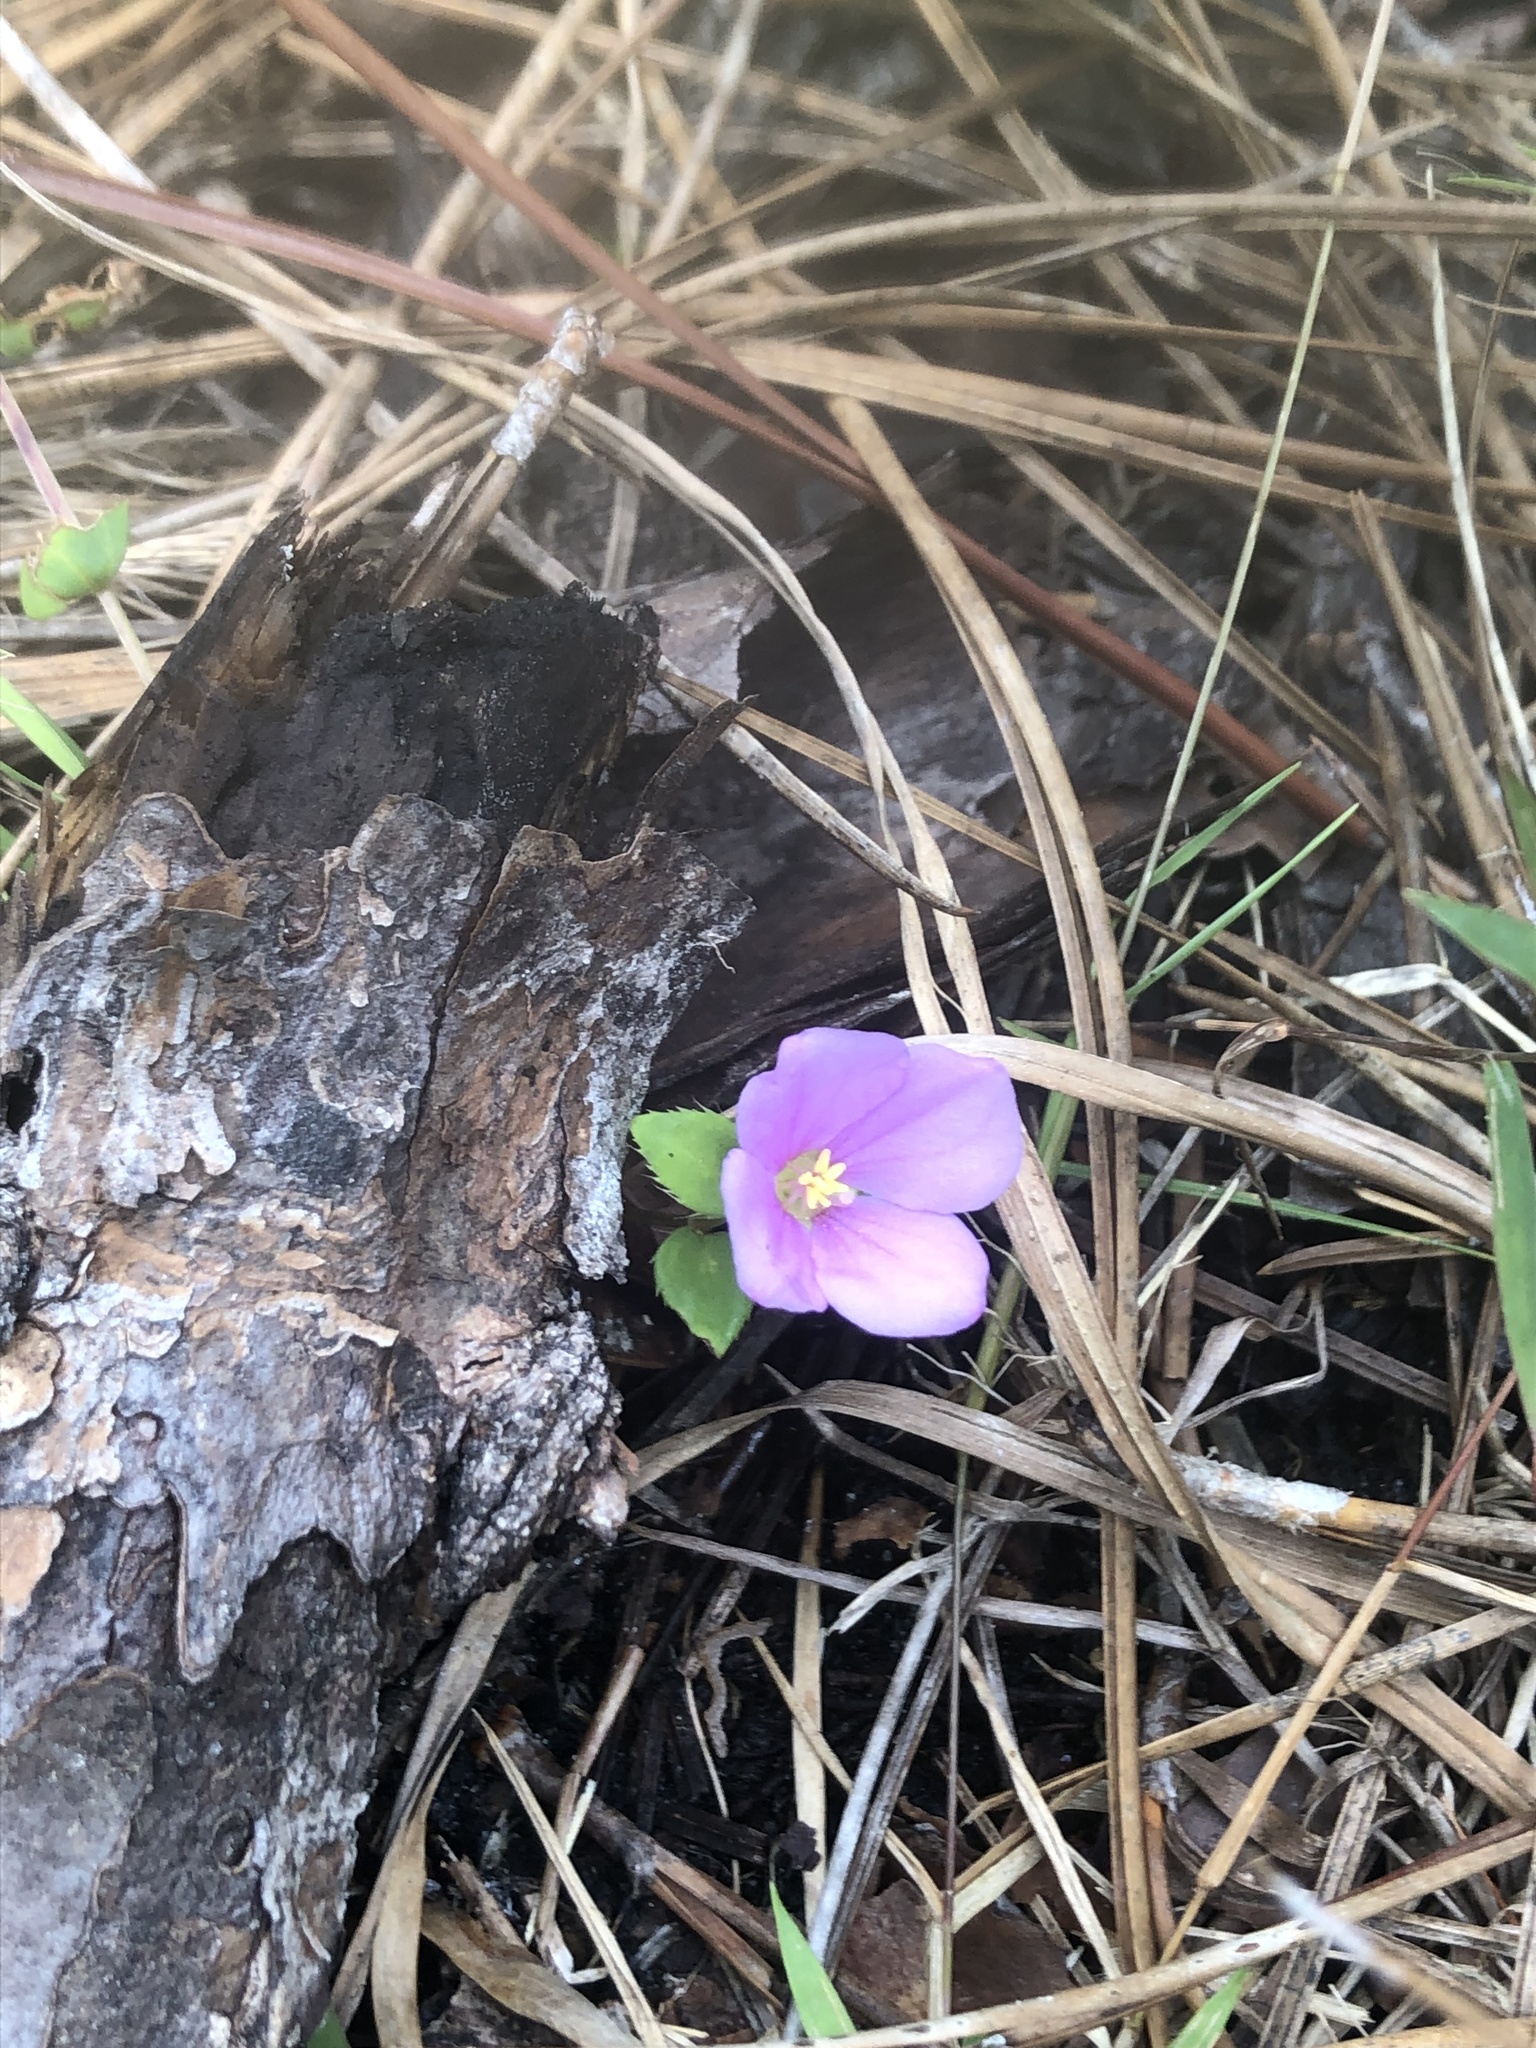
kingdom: Plantae
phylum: Tracheophyta
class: Magnoliopsida
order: Myrtales
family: Melastomataceae
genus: Rhexia
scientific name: Rhexia petiolata
